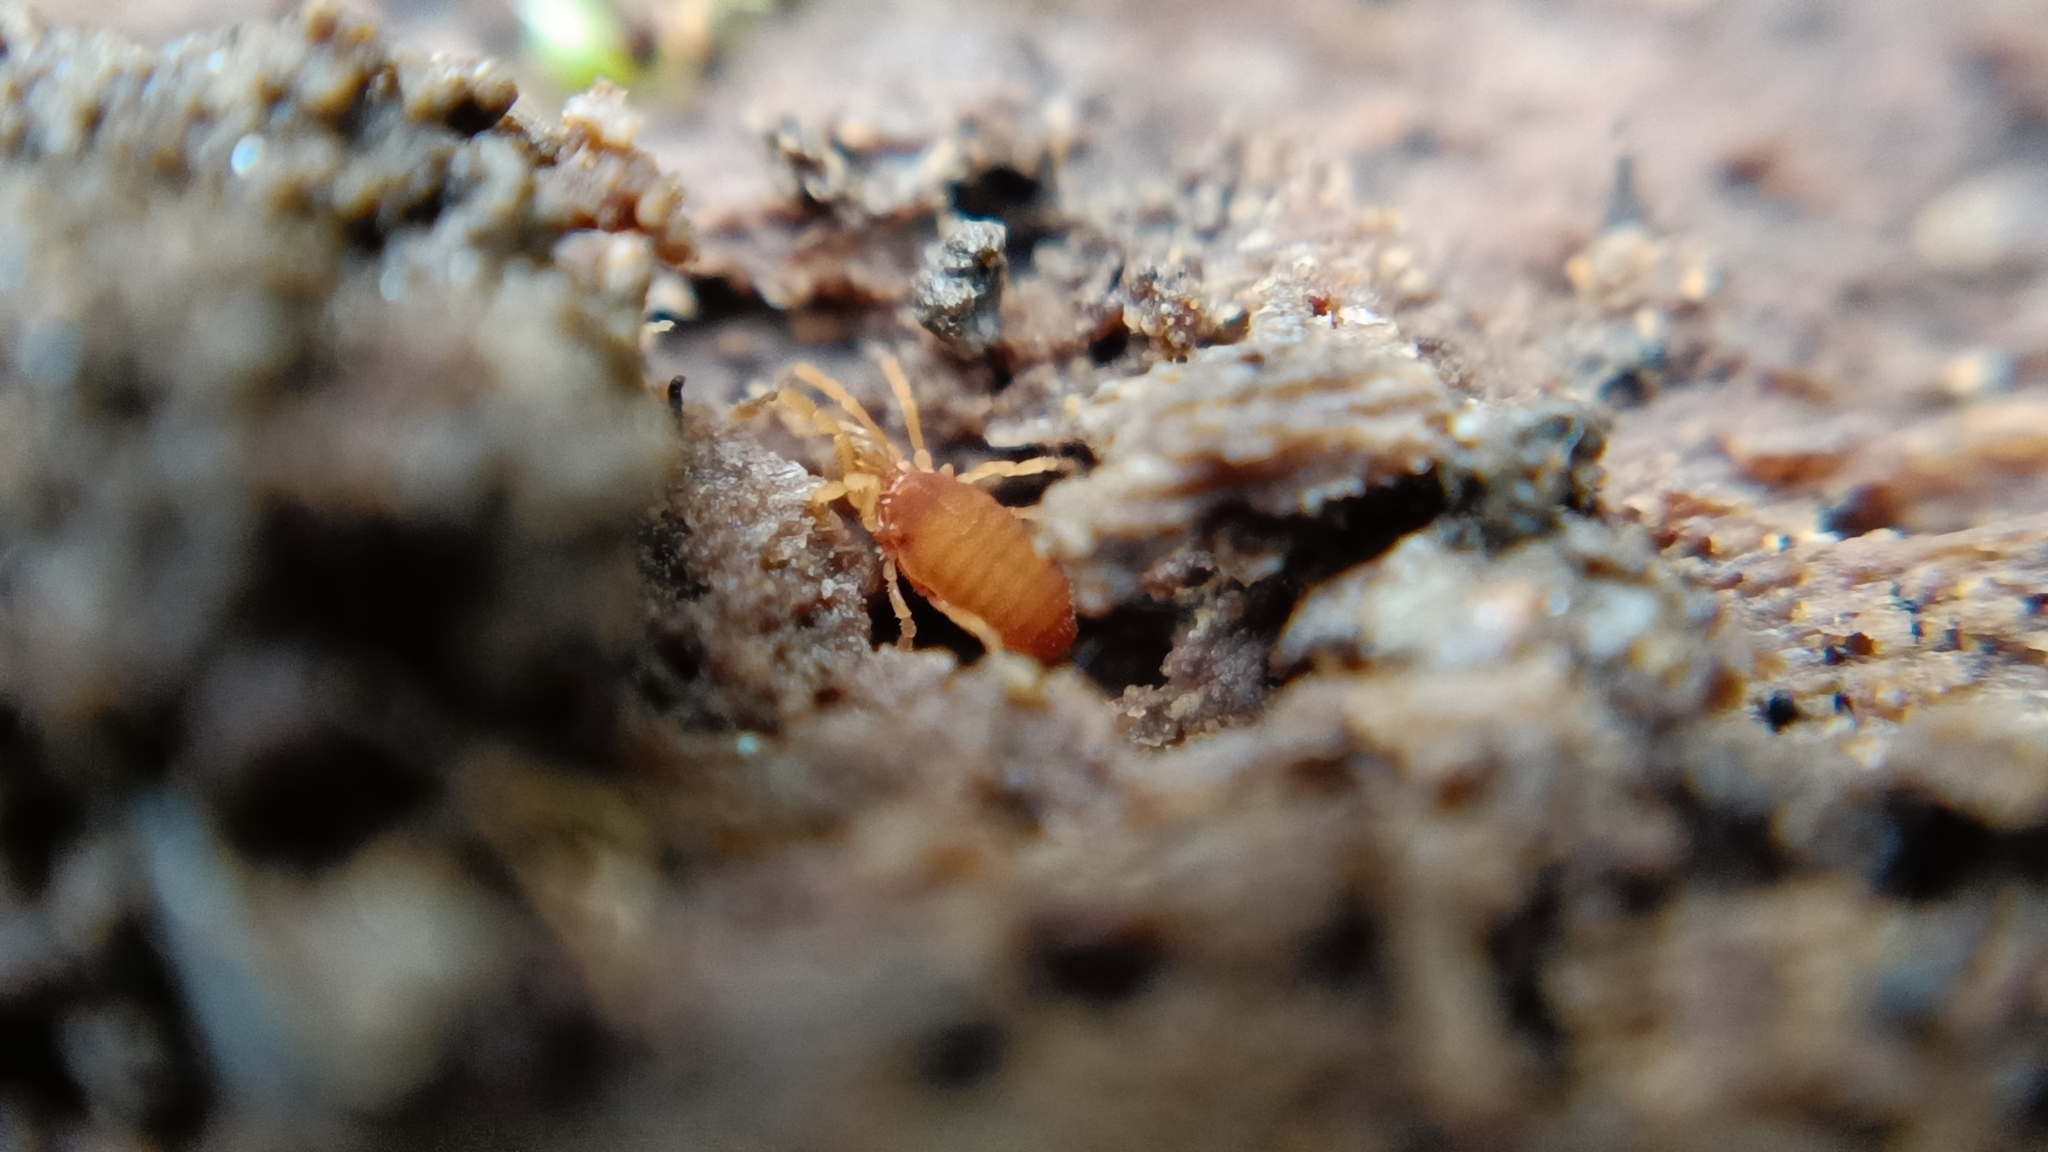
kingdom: Animalia
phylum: Arthropoda
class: Arachnida
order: Opiliones
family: Sironidae
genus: Siro
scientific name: Siro rubens
